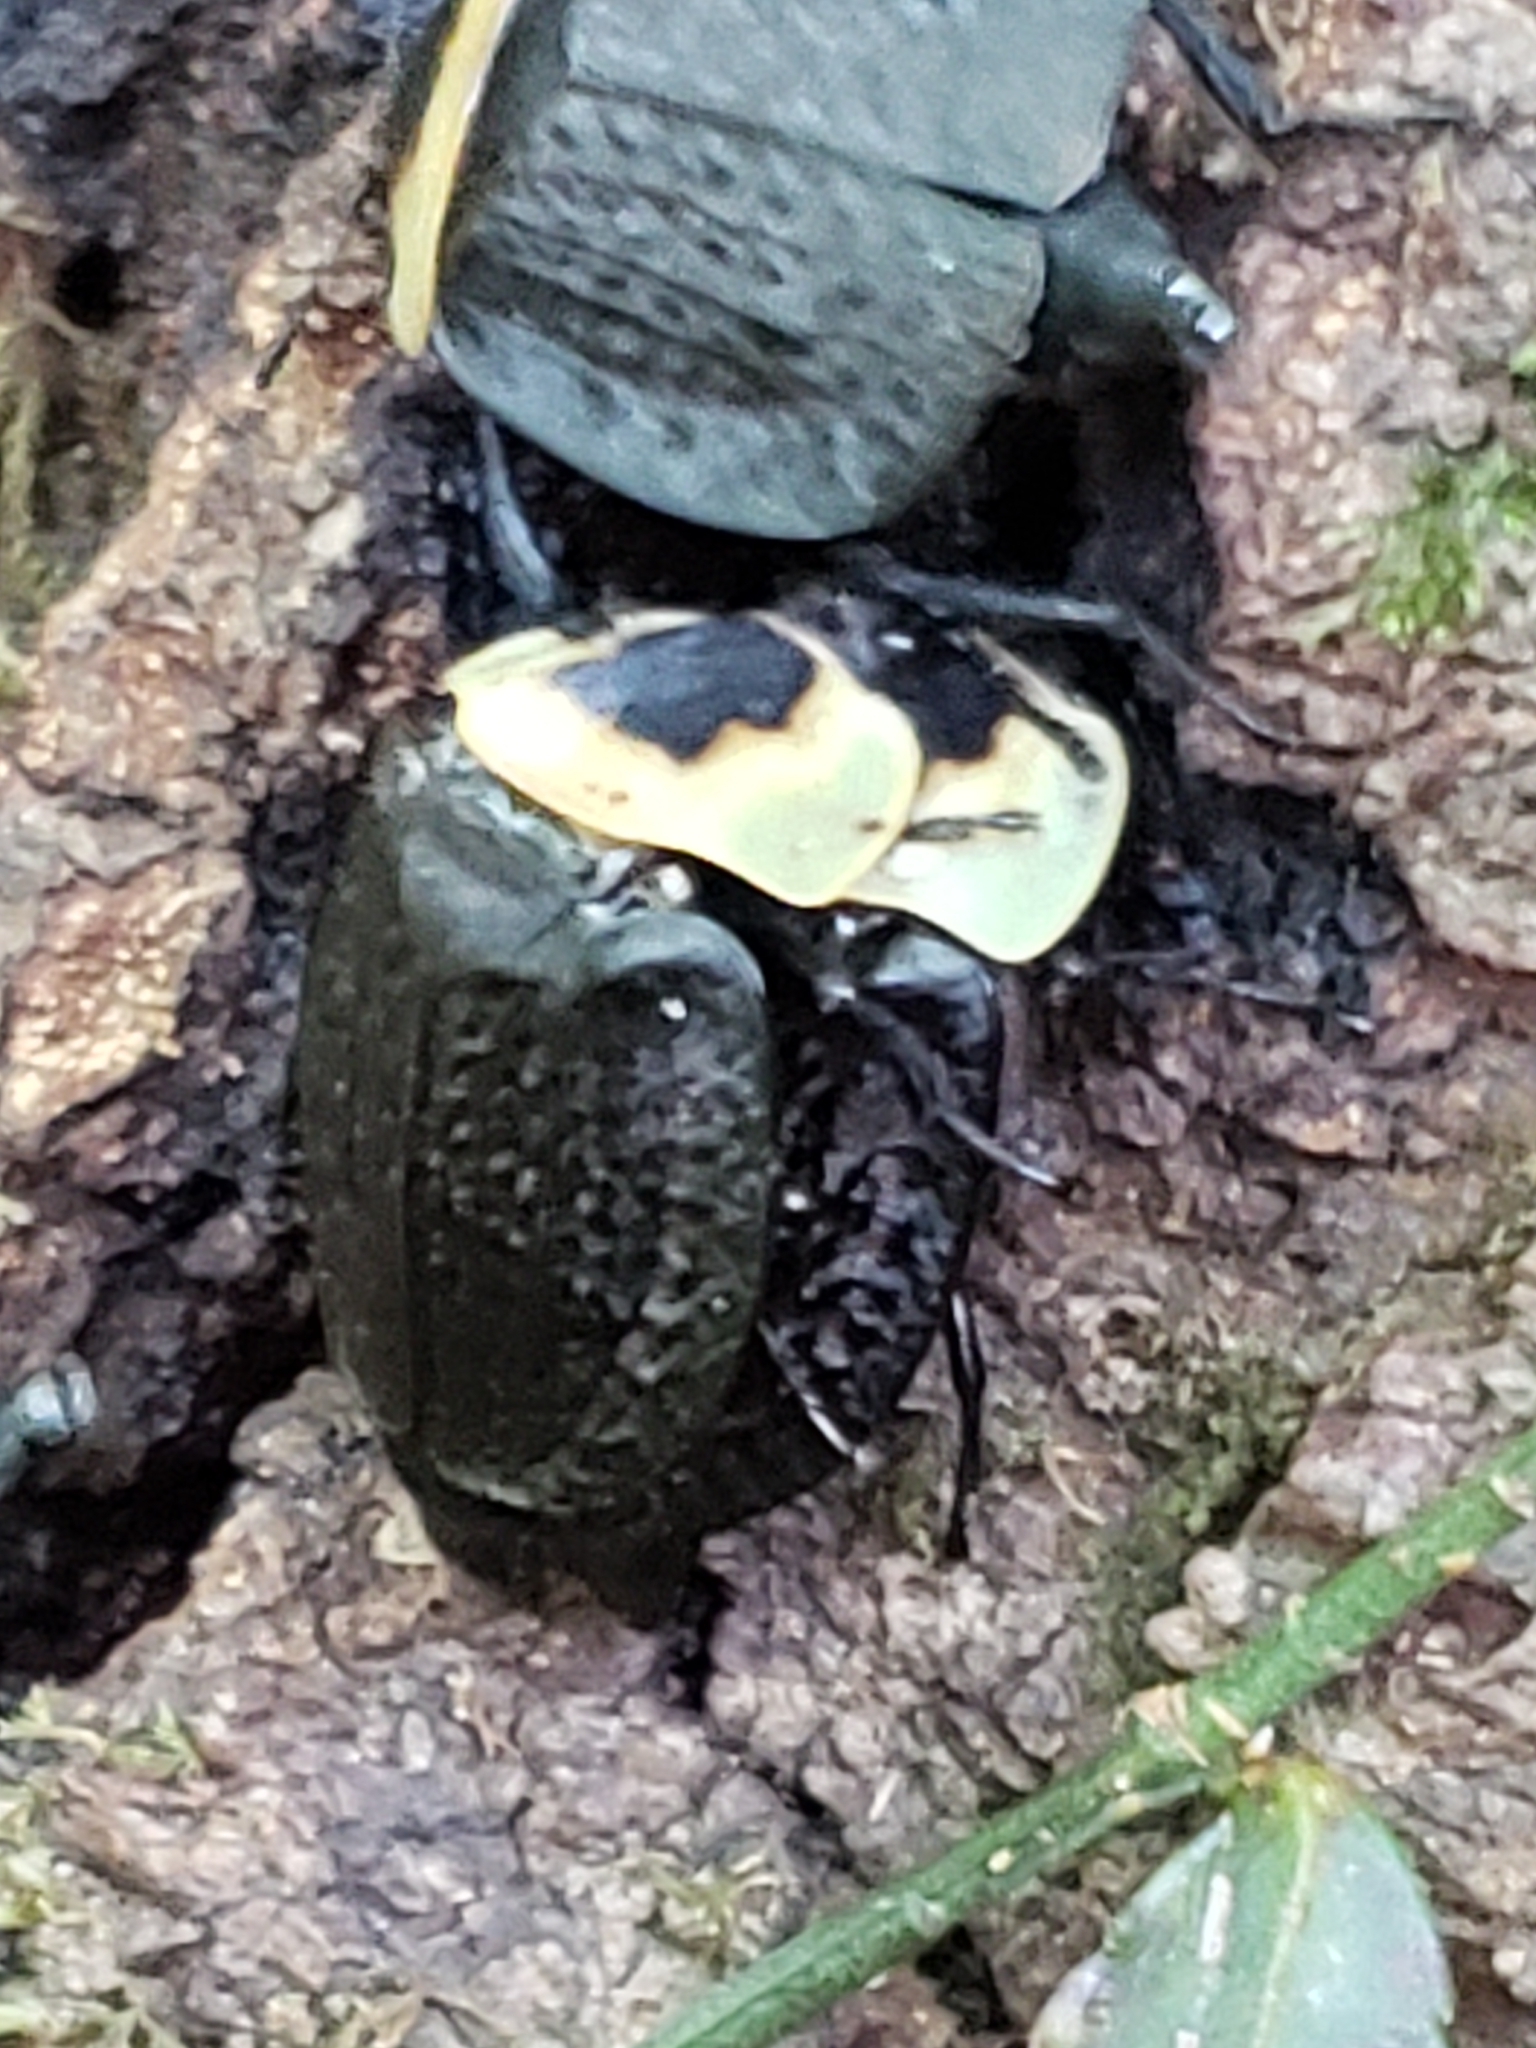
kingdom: Animalia
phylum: Arthropoda
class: Insecta
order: Coleoptera
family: Staphylinidae
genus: Necrophila
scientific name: Necrophila americana
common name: American carrion beetle
